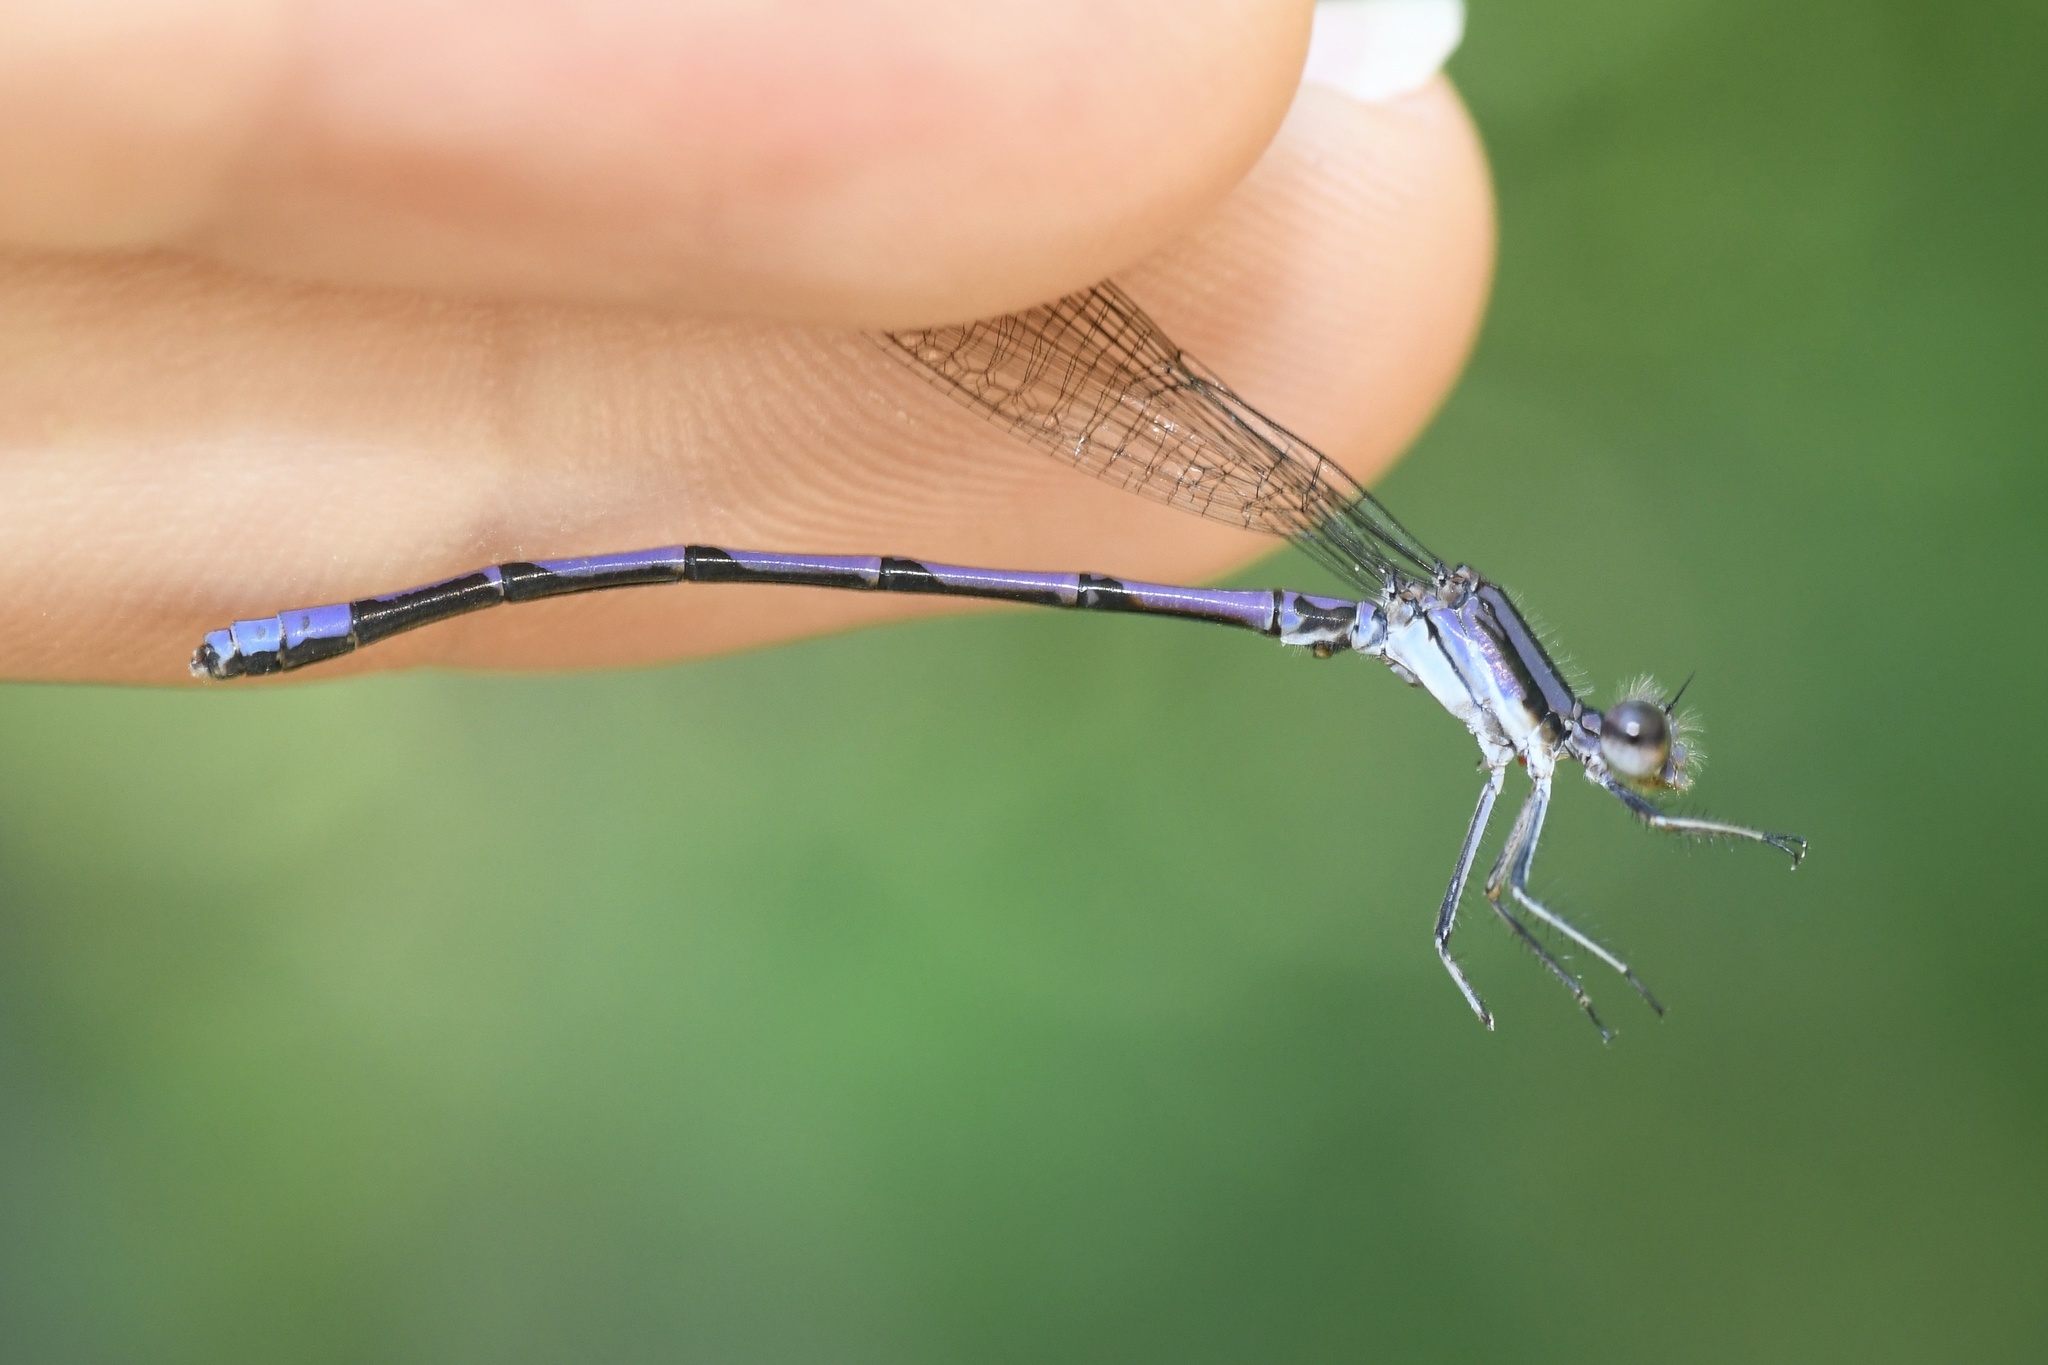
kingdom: Animalia
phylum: Arthropoda
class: Insecta
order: Odonata
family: Coenagrionidae
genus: Argia
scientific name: Argia fumipennis
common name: Variable dancer
